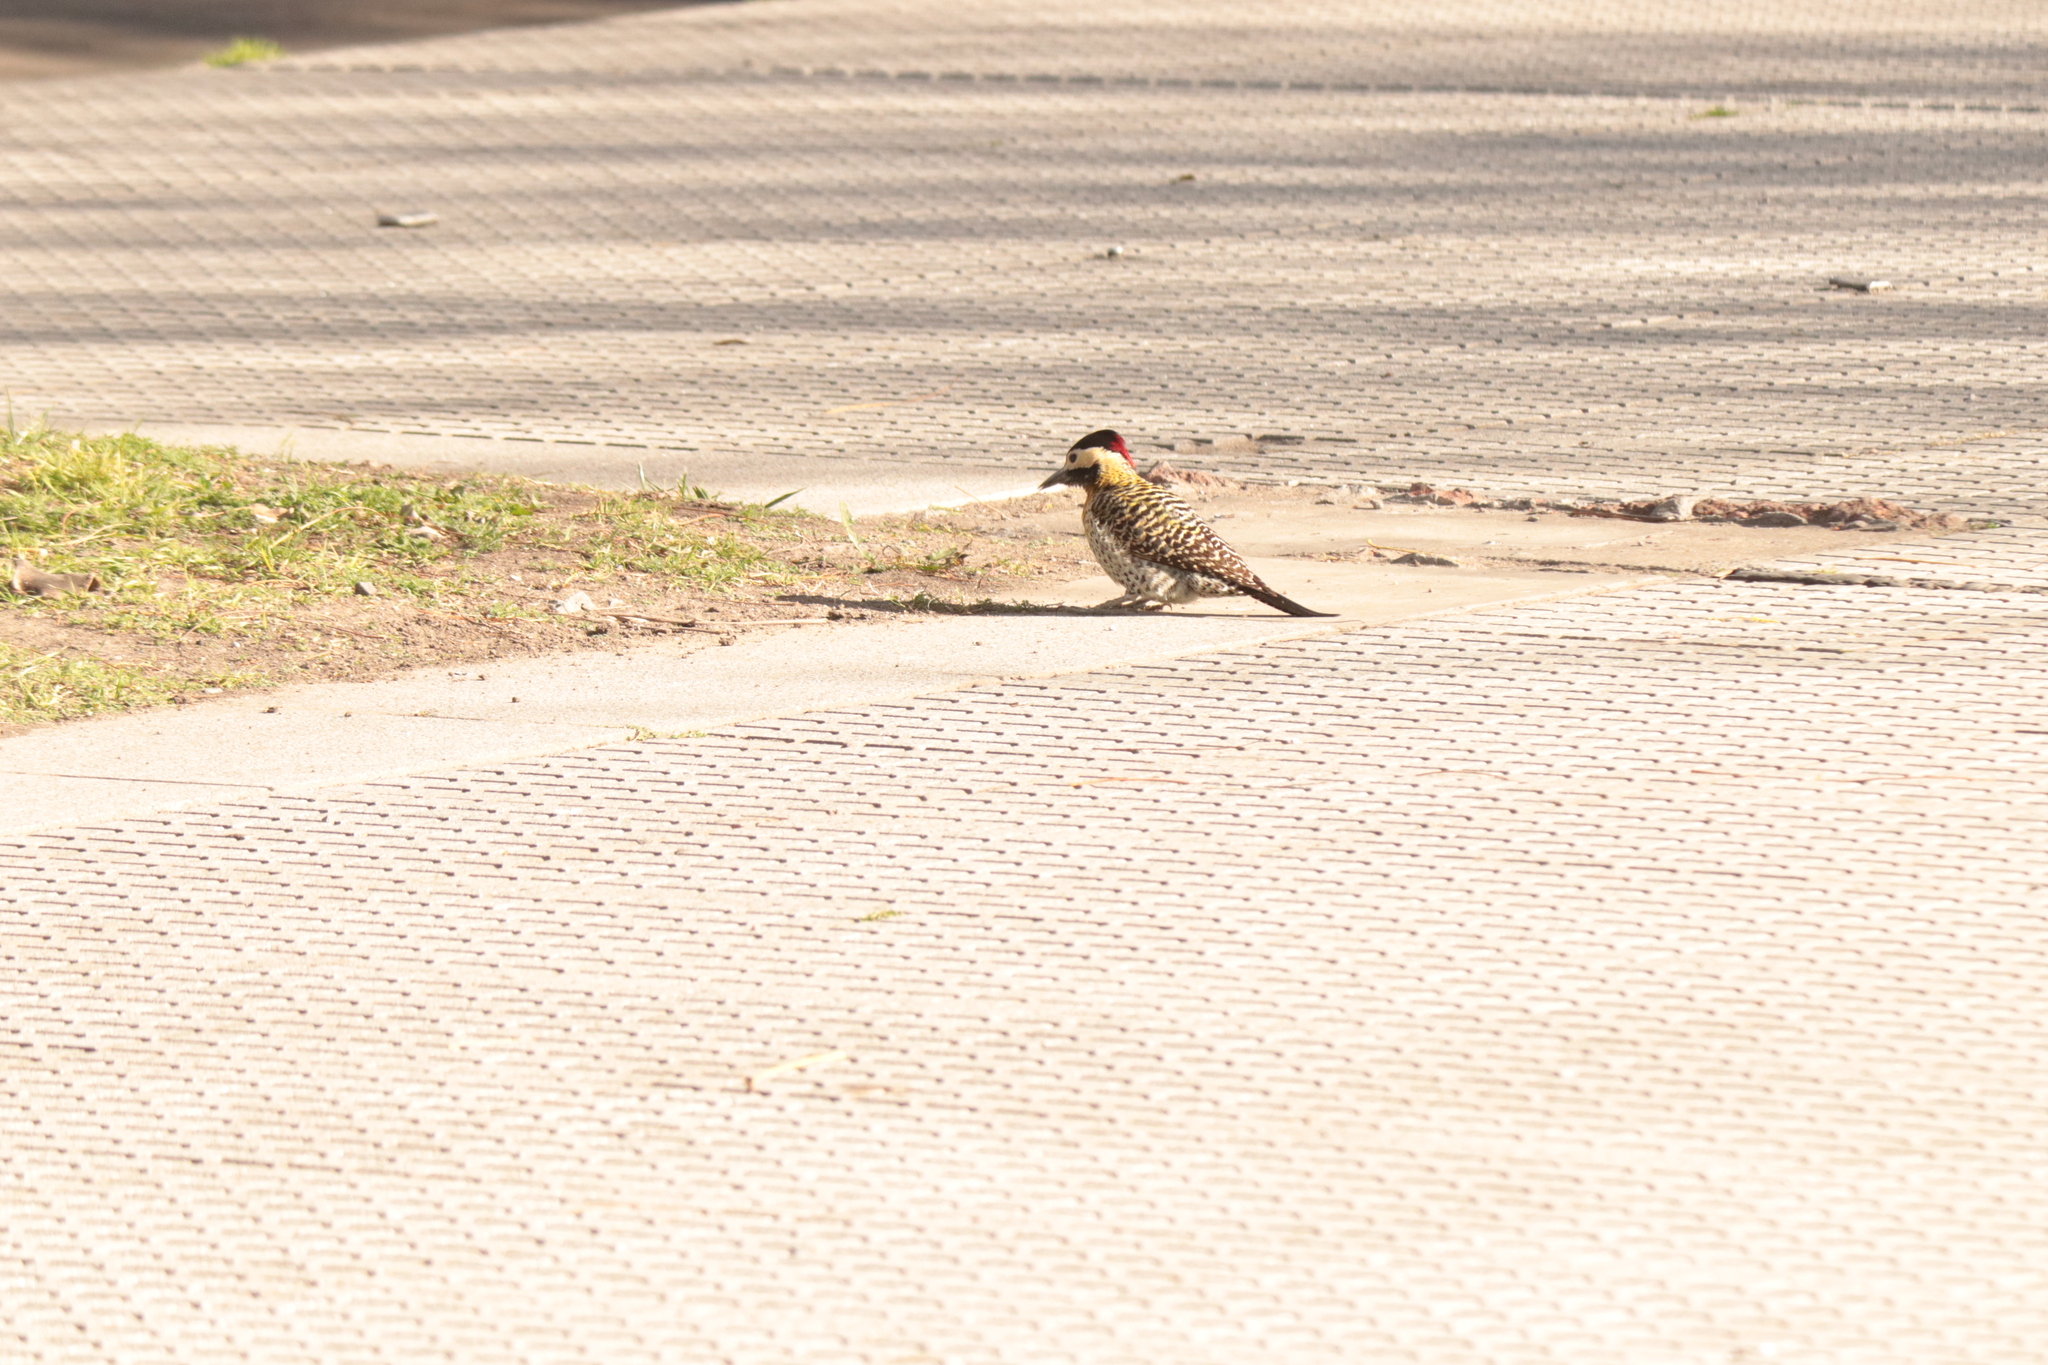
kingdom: Animalia
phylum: Chordata
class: Aves
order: Piciformes
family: Picidae
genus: Colaptes
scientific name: Colaptes melanochloros
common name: Green-barred woodpecker
